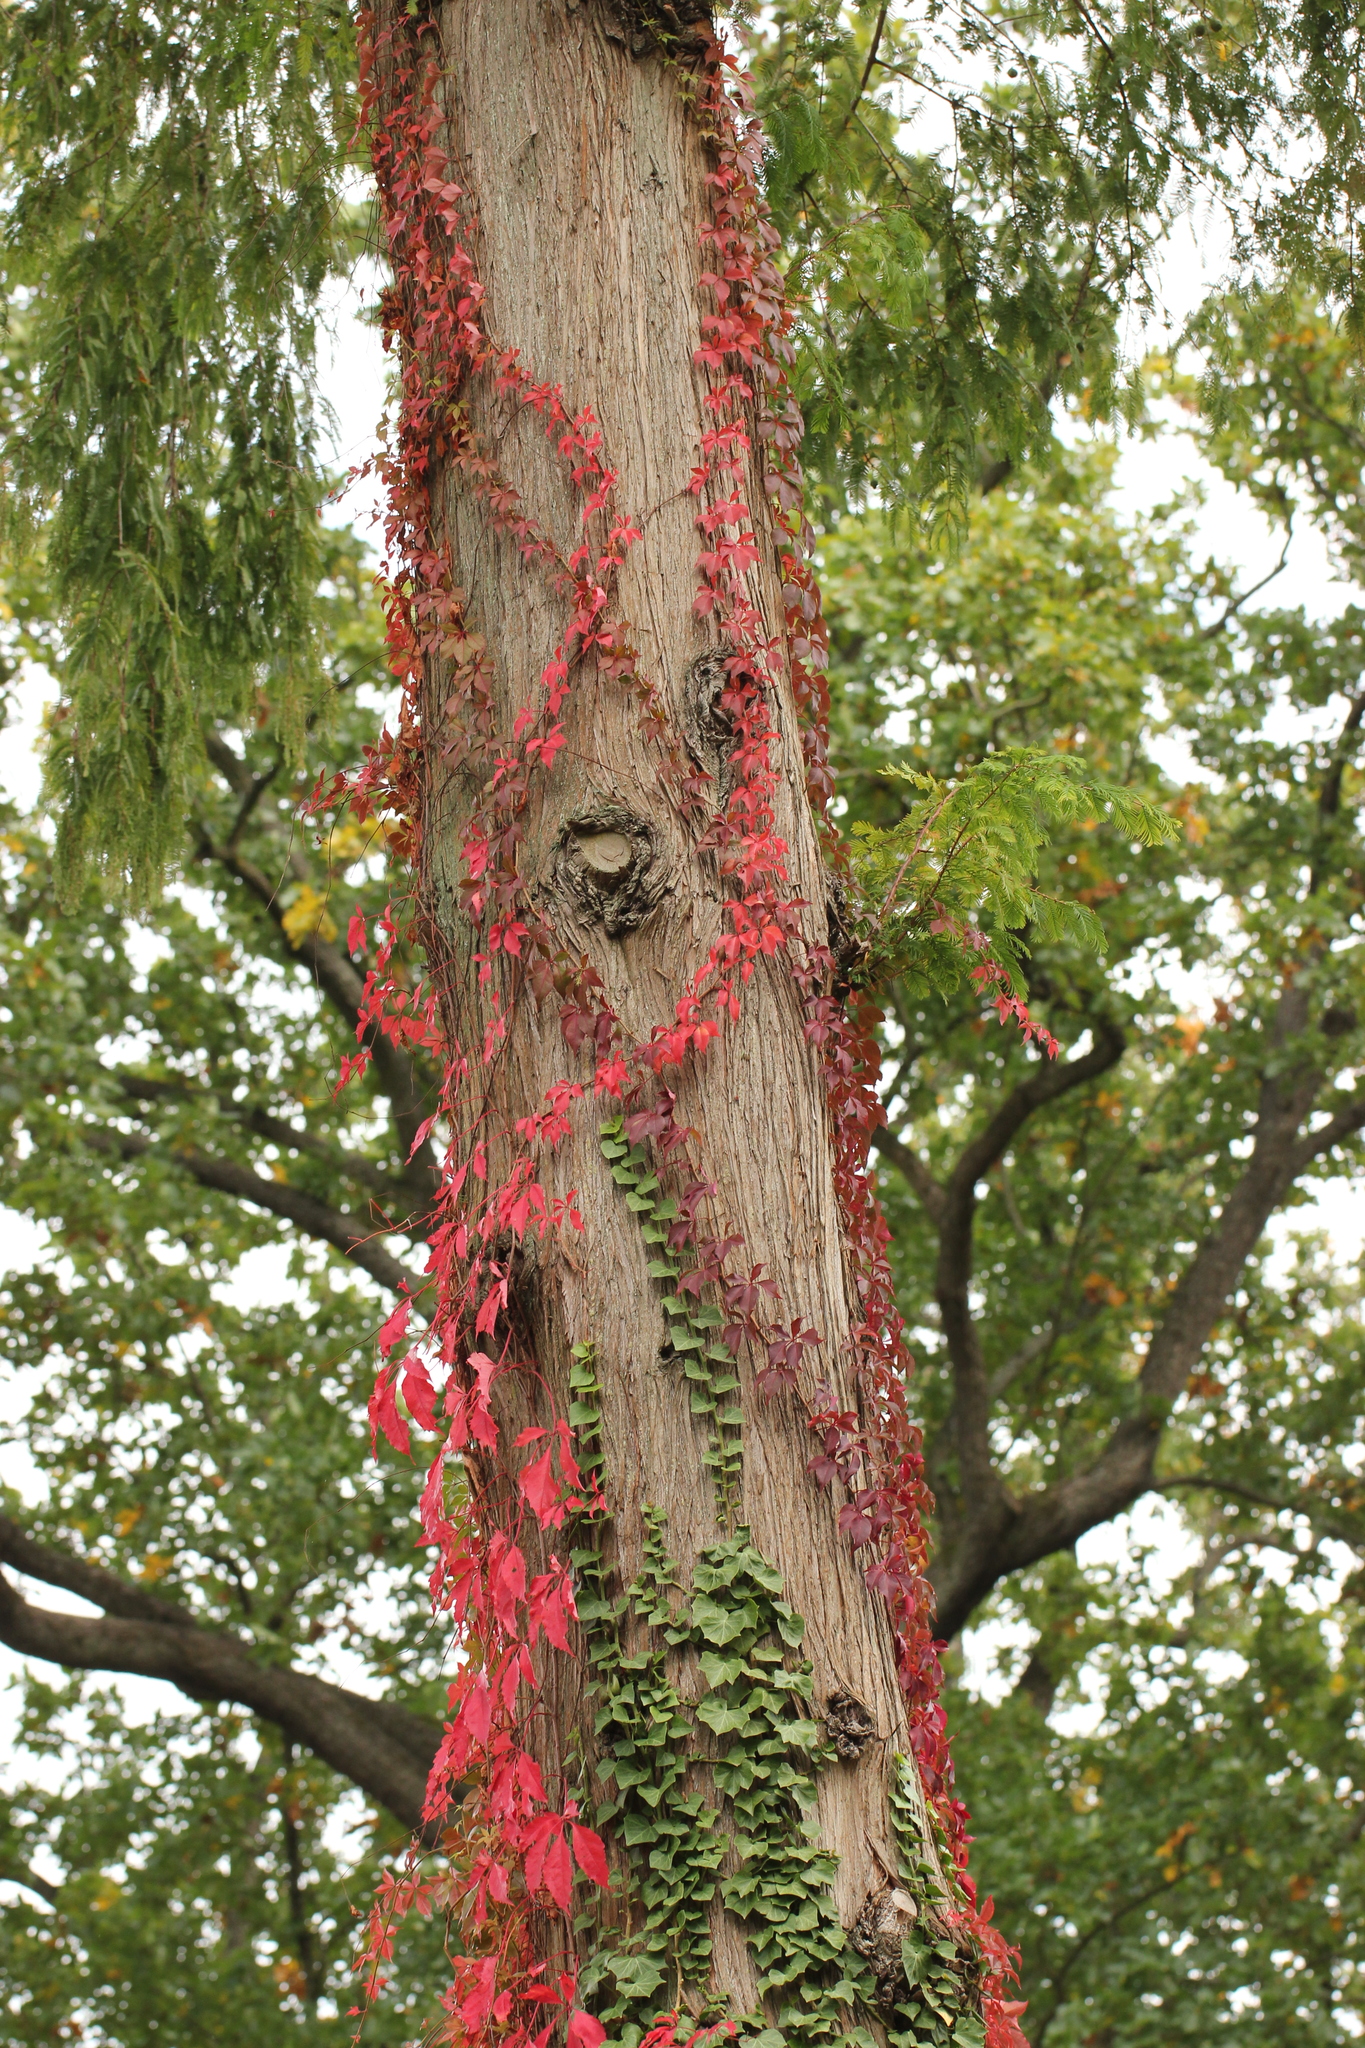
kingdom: Plantae
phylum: Tracheophyta
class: Magnoliopsida
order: Vitales
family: Vitaceae
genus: Parthenocissus
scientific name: Parthenocissus quinquefolia
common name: Virginia-creeper
